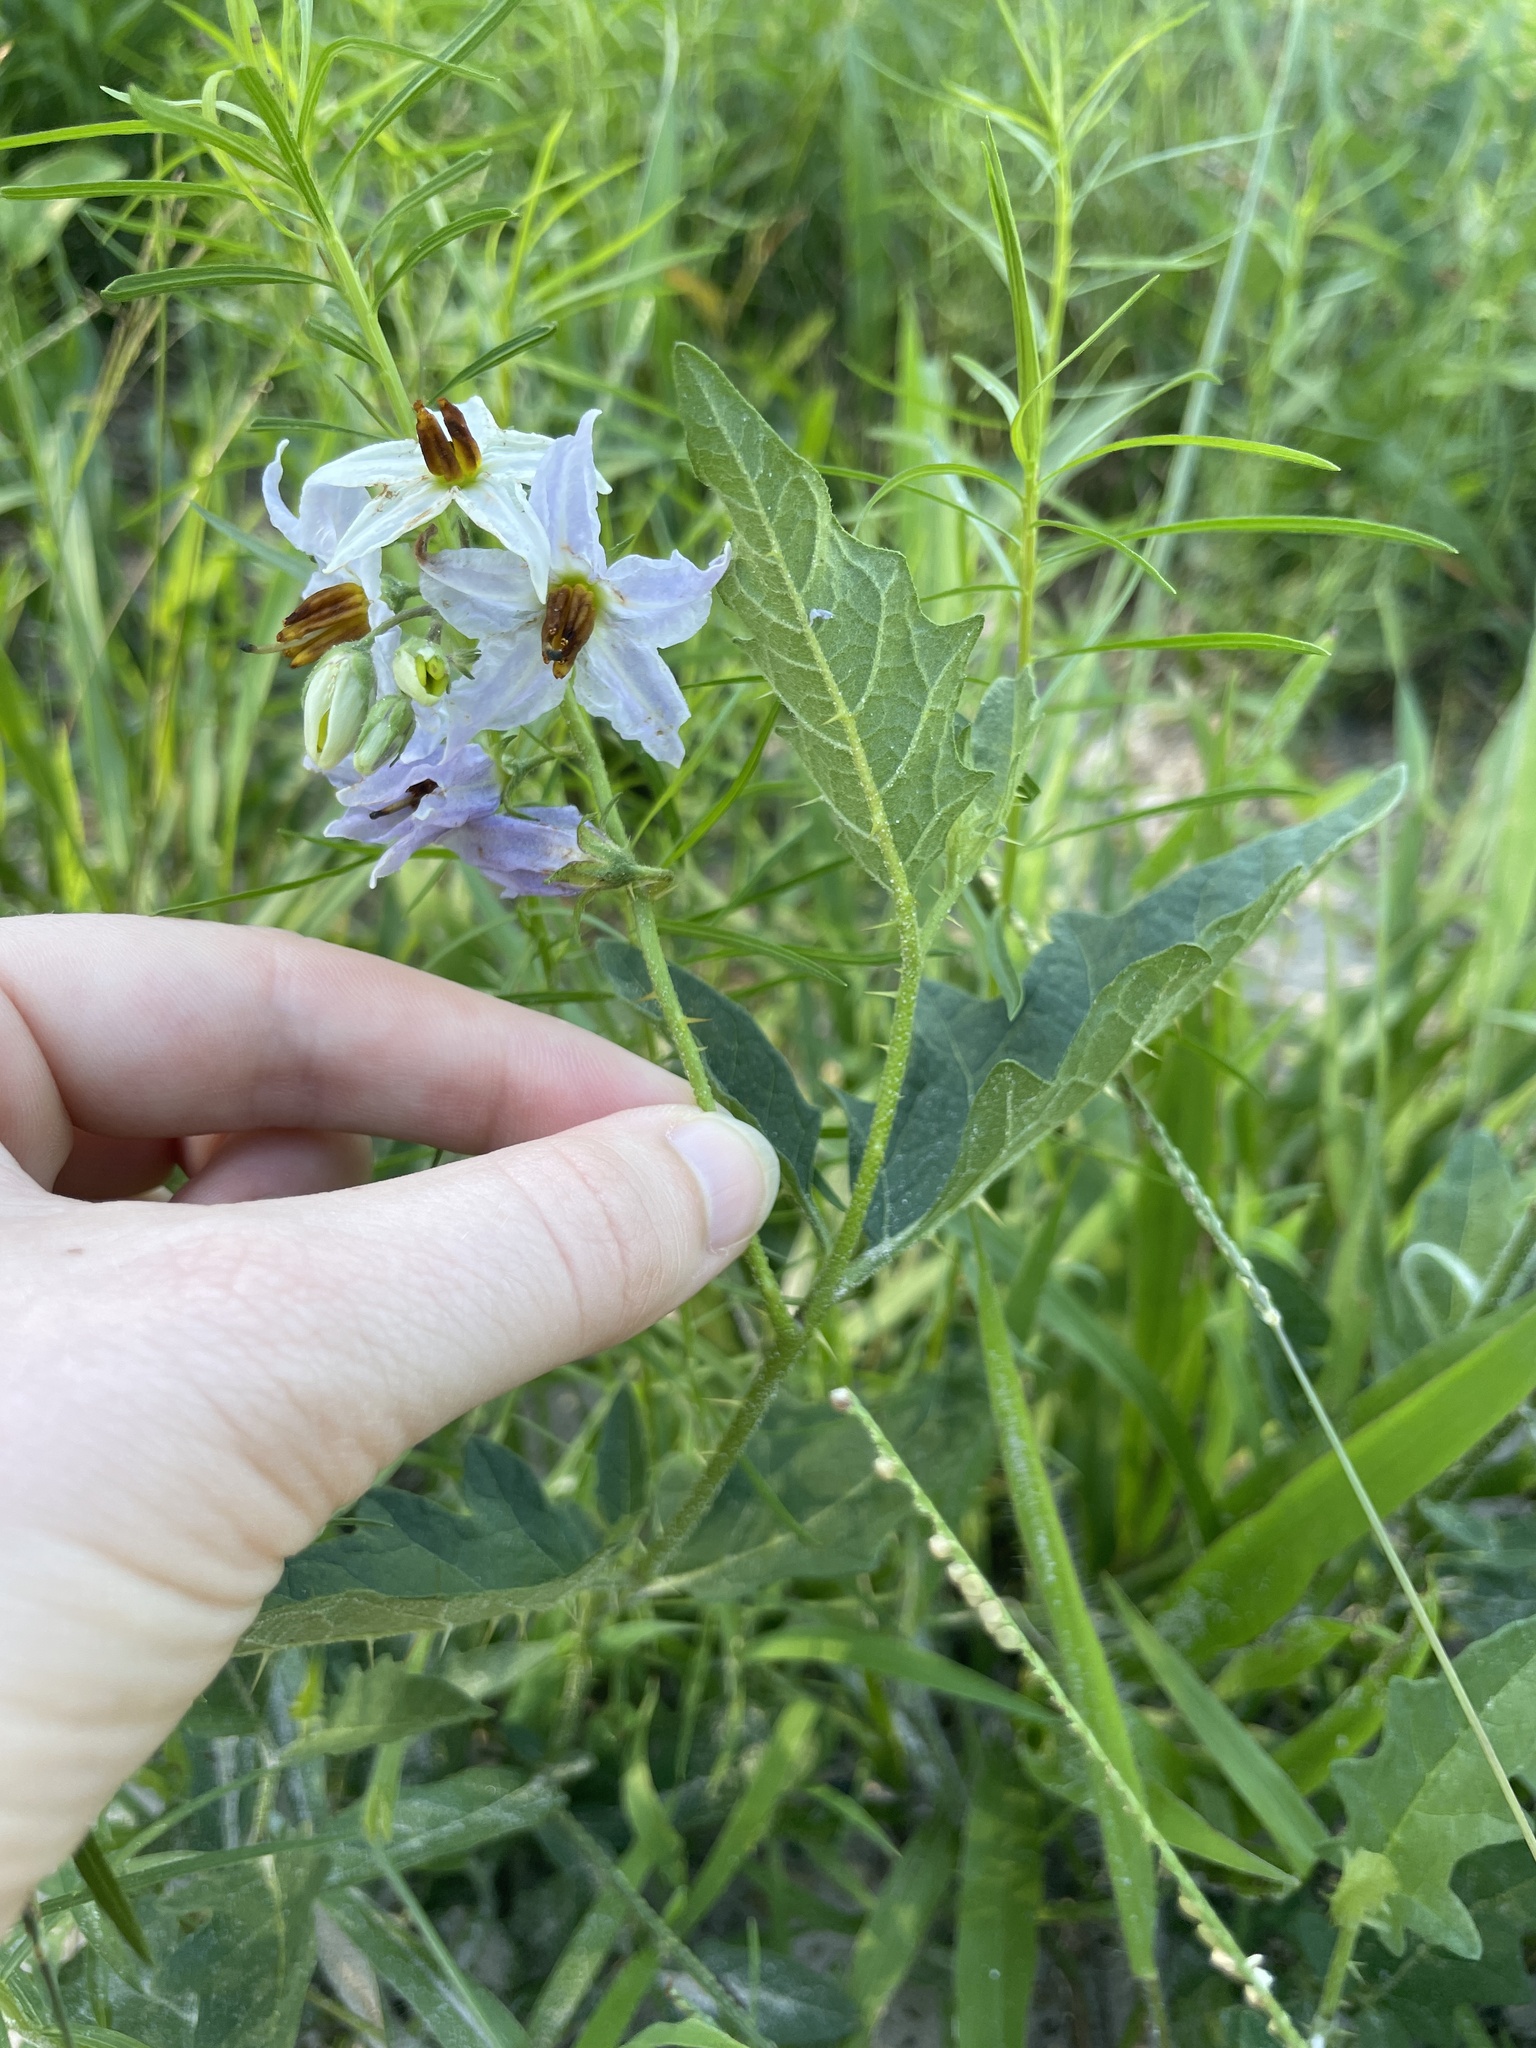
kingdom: Plantae
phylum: Tracheophyta
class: Magnoliopsida
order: Solanales
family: Solanaceae
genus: Solanum
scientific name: Solanum carolinense
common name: Horse-nettle
